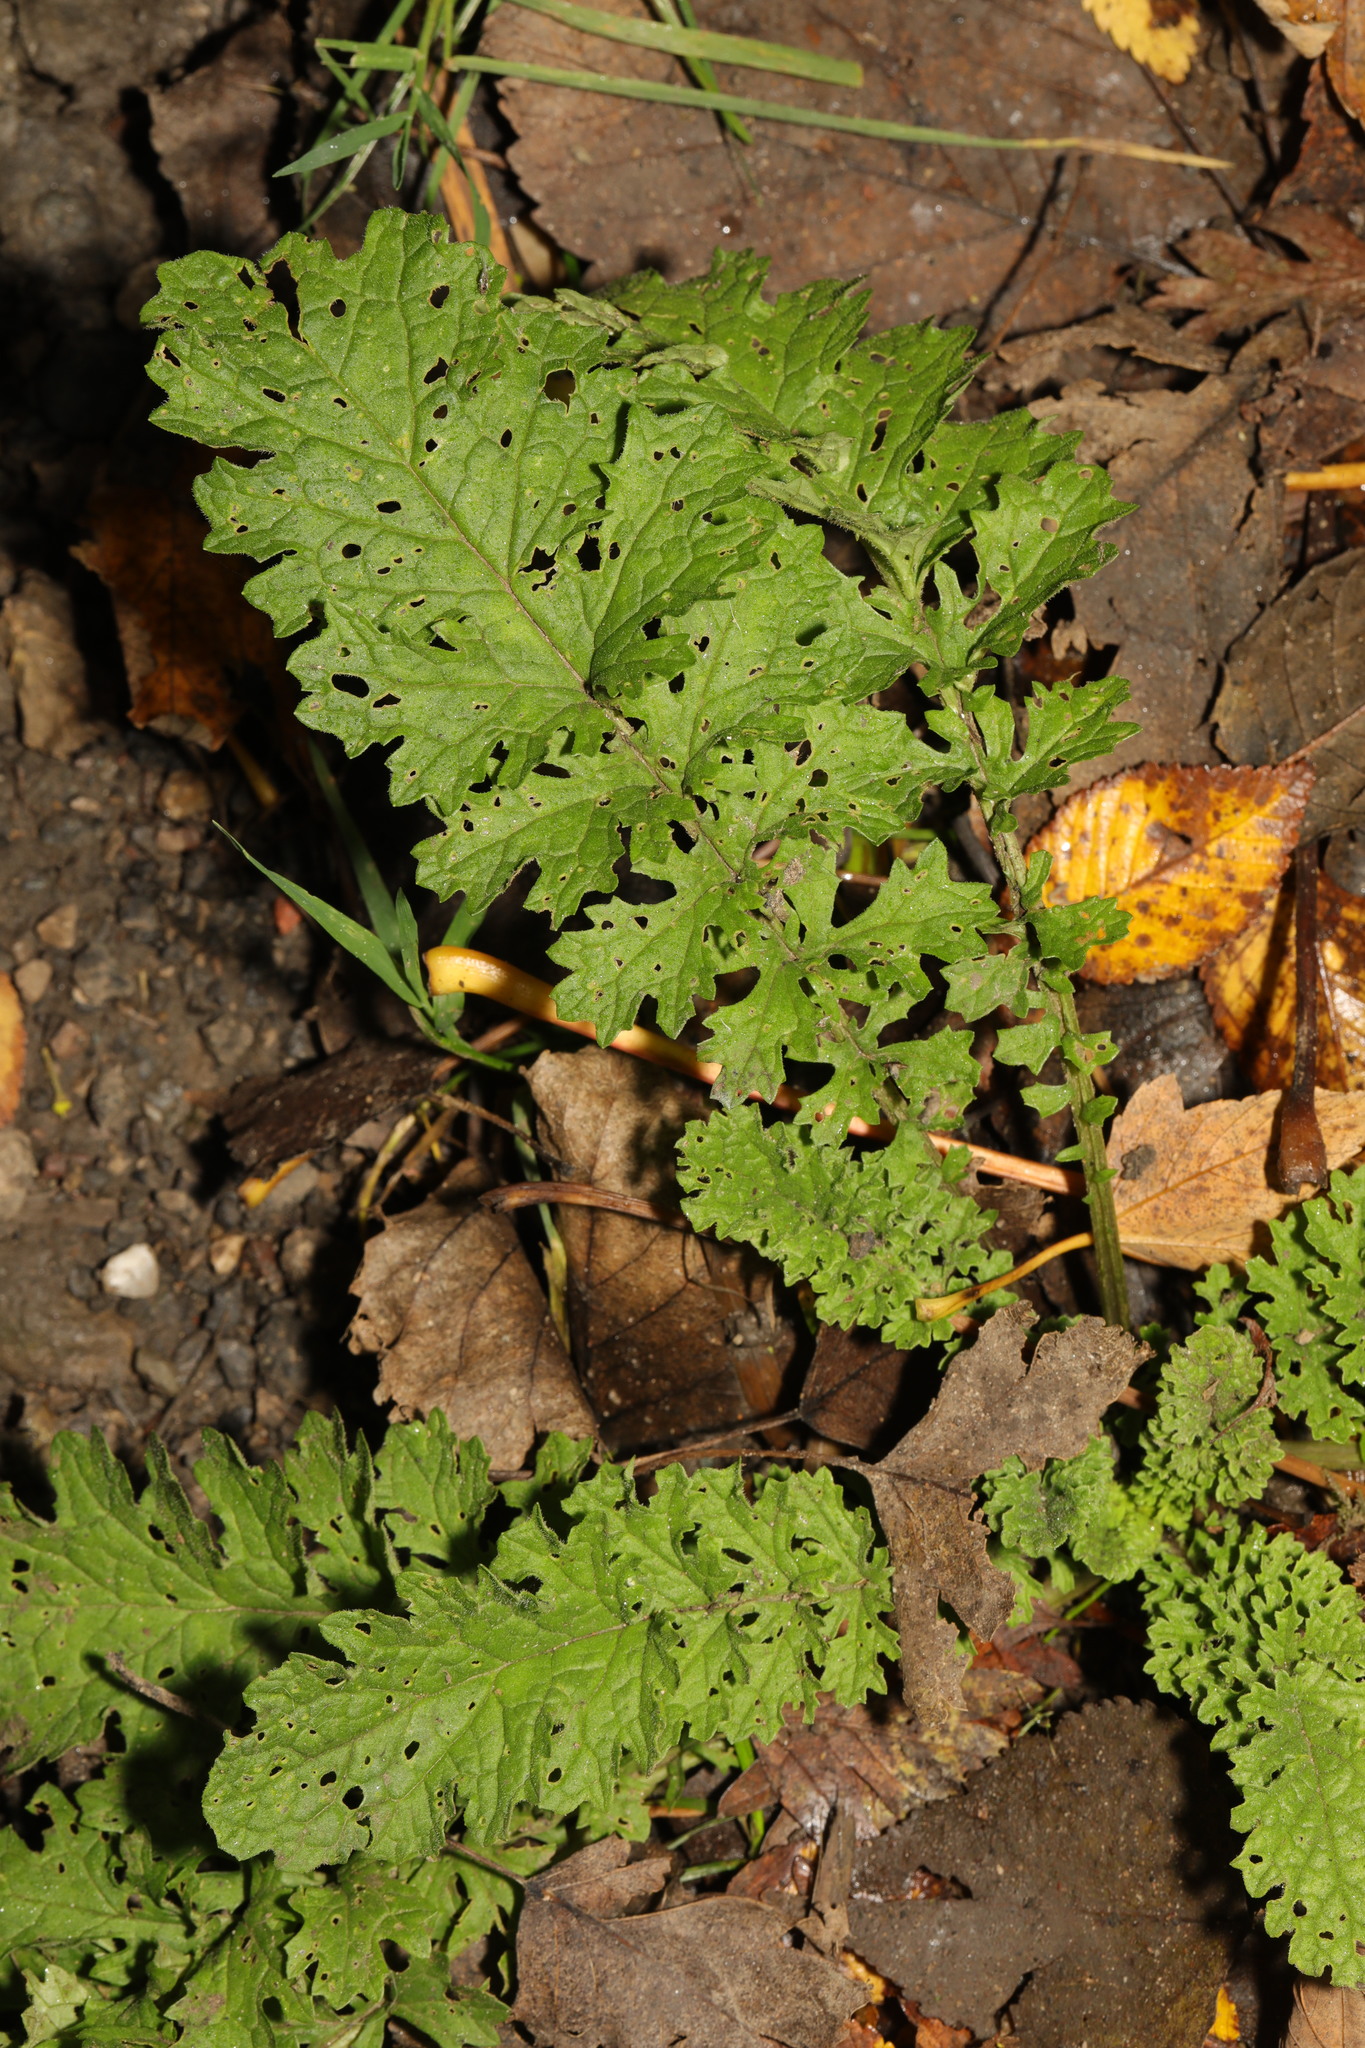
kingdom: Plantae
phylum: Tracheophyta
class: Magnoliopsida
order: Asterales
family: Asteraceae
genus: Jacobaea
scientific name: Jacobaea vulgaris
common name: Stinking willie
